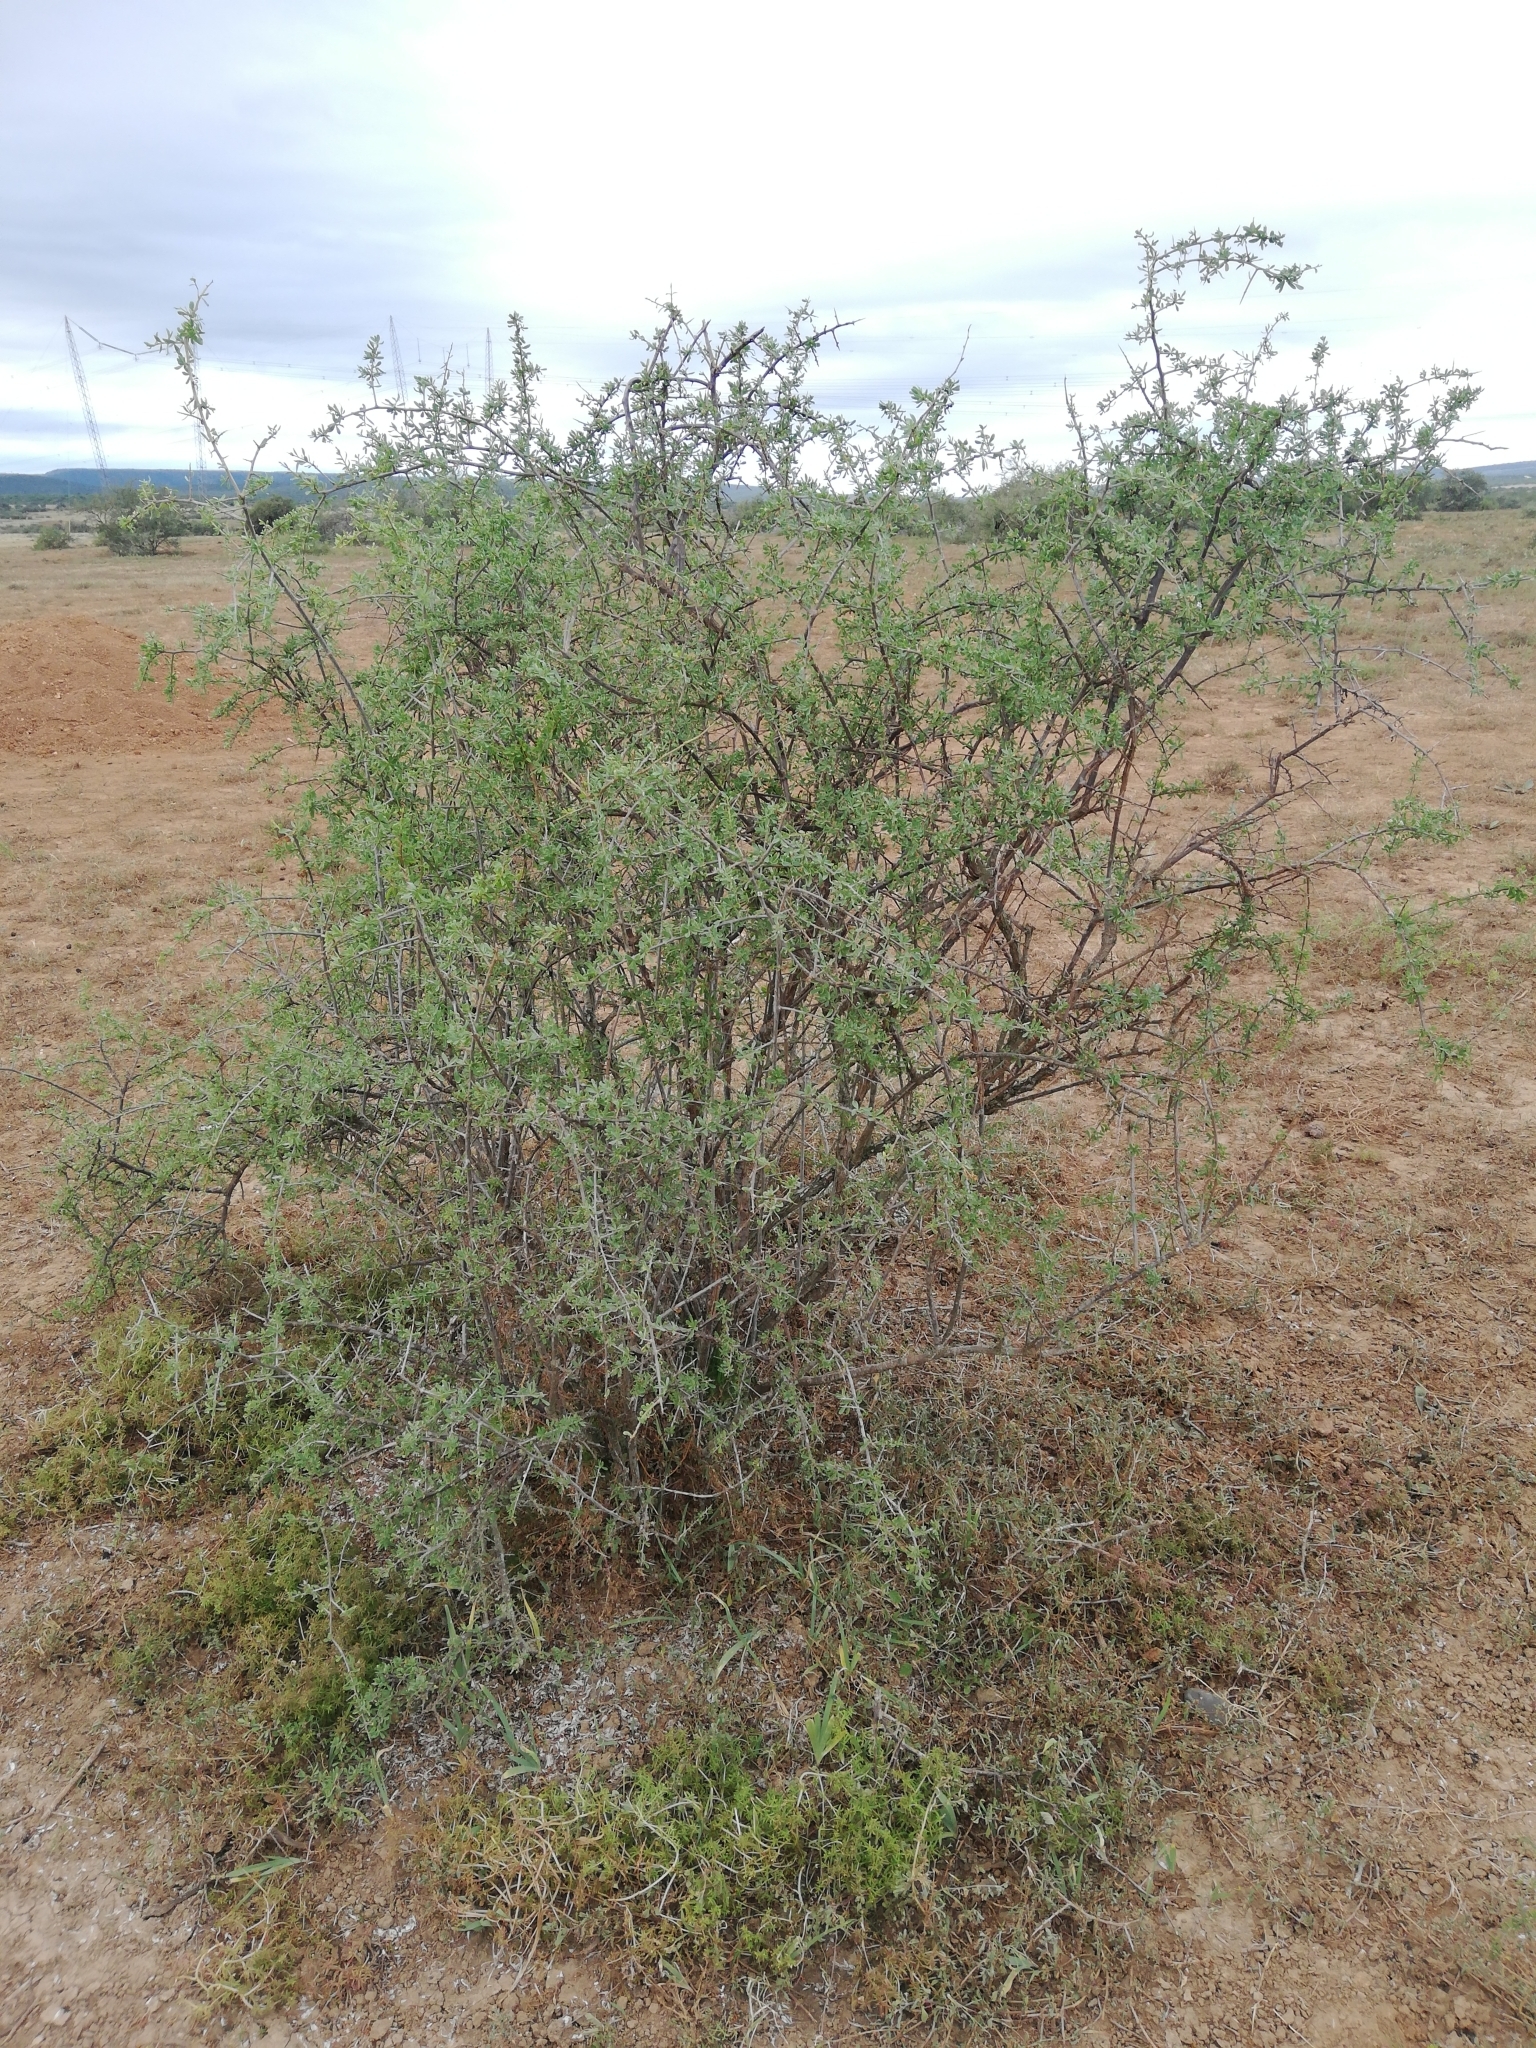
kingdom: Plantae
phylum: Tracheophyta
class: Magnoliopsida
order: Solanales
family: Solanaceae
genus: Lycium
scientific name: Lycium ferocissimum
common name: African boxthorn
